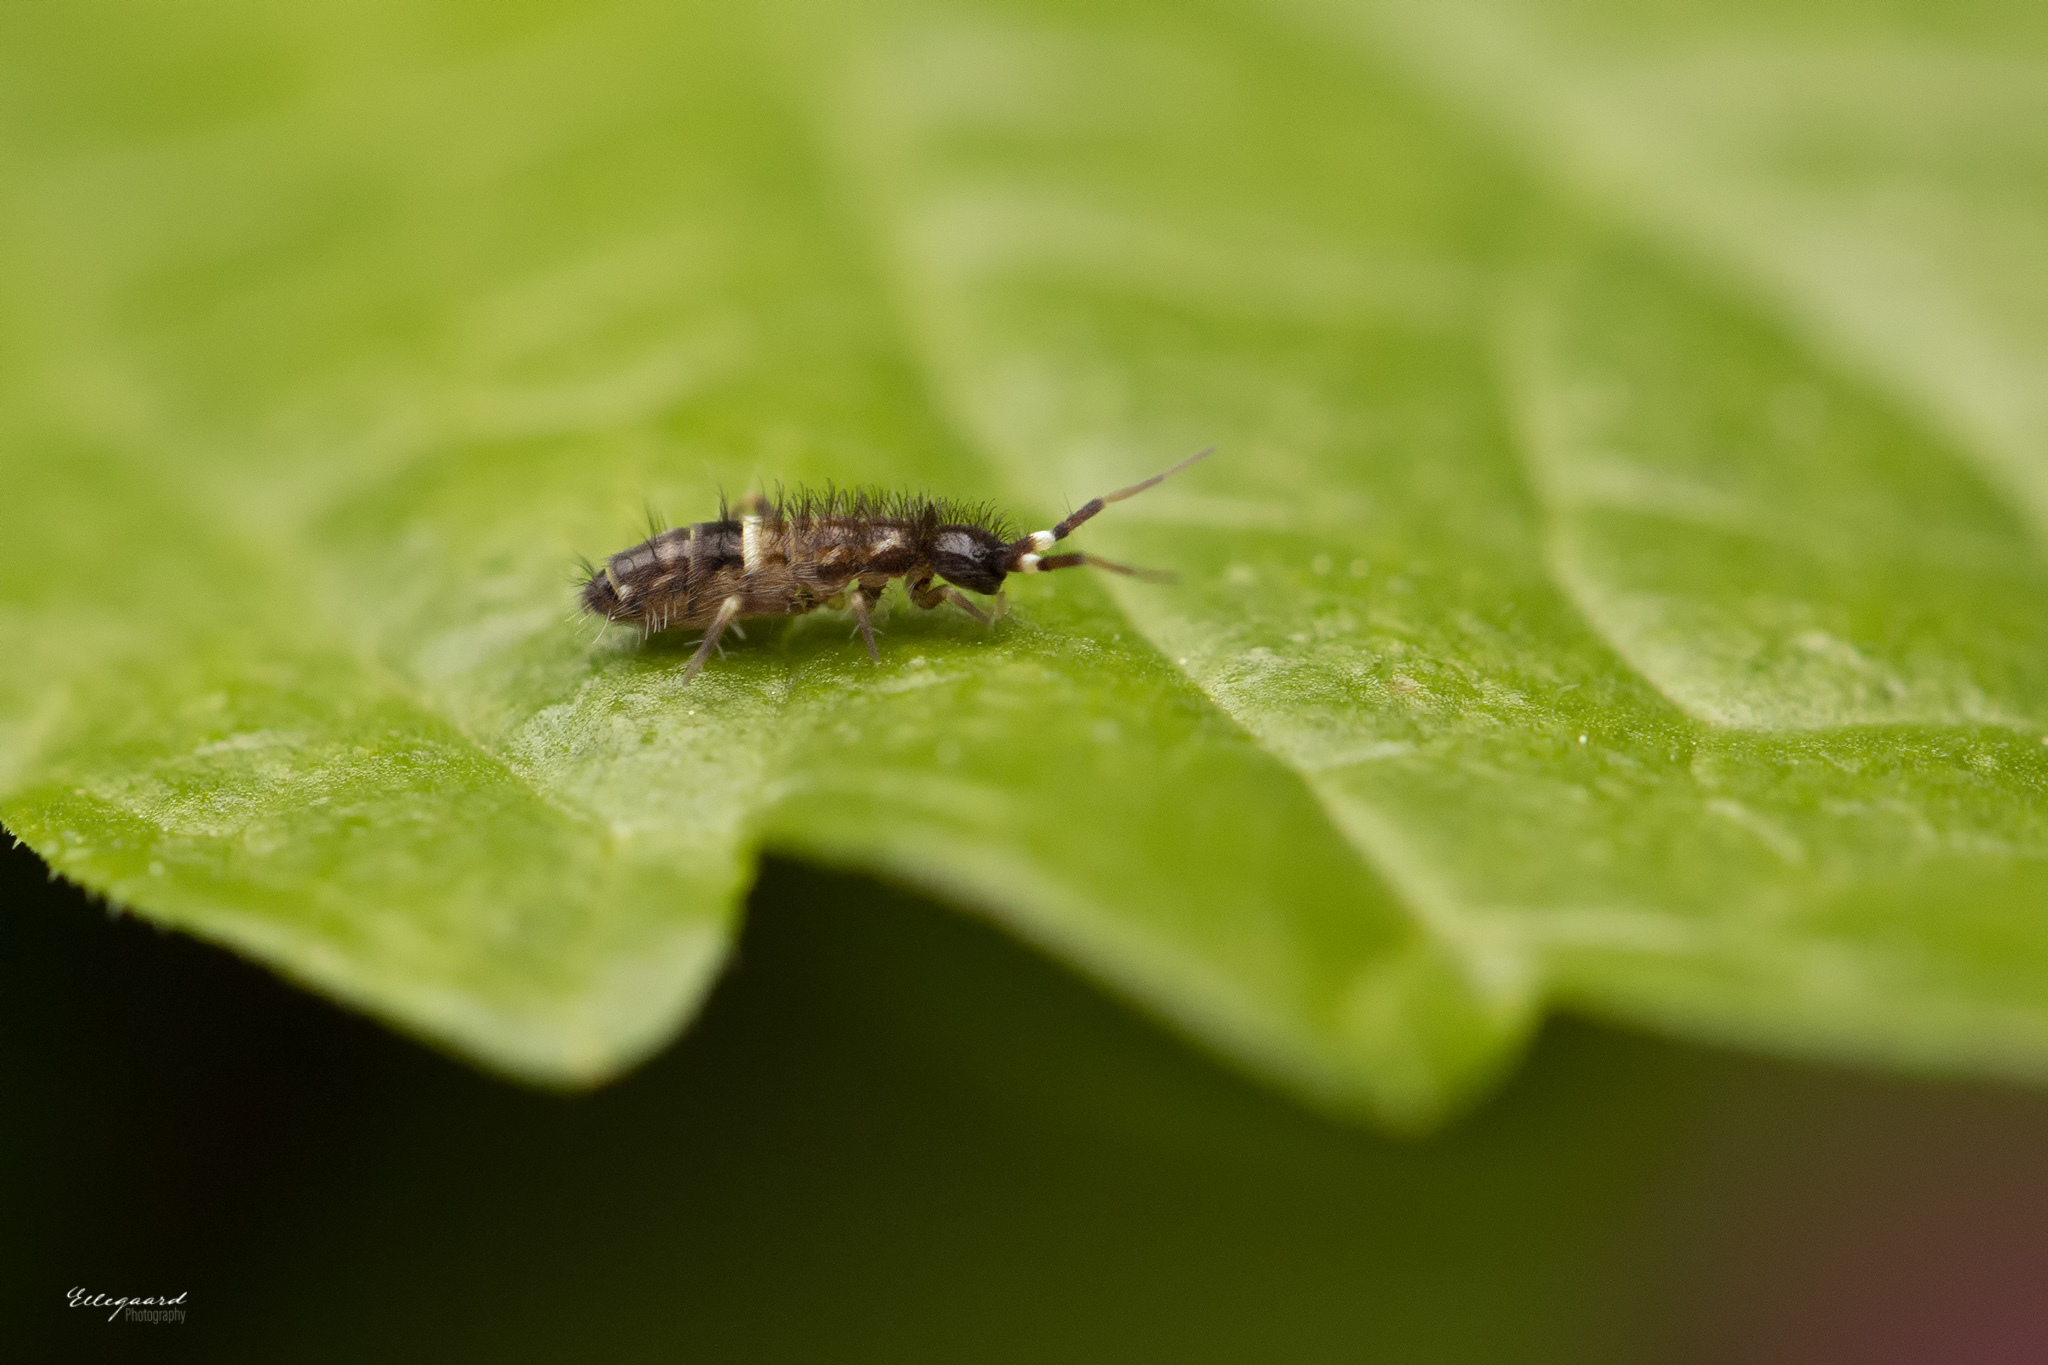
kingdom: Animalia
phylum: Arthropoda
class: Collembola
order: Entomobryomorpha
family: Orchesellidae
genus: Orchesella
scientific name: Orchesella cincta
